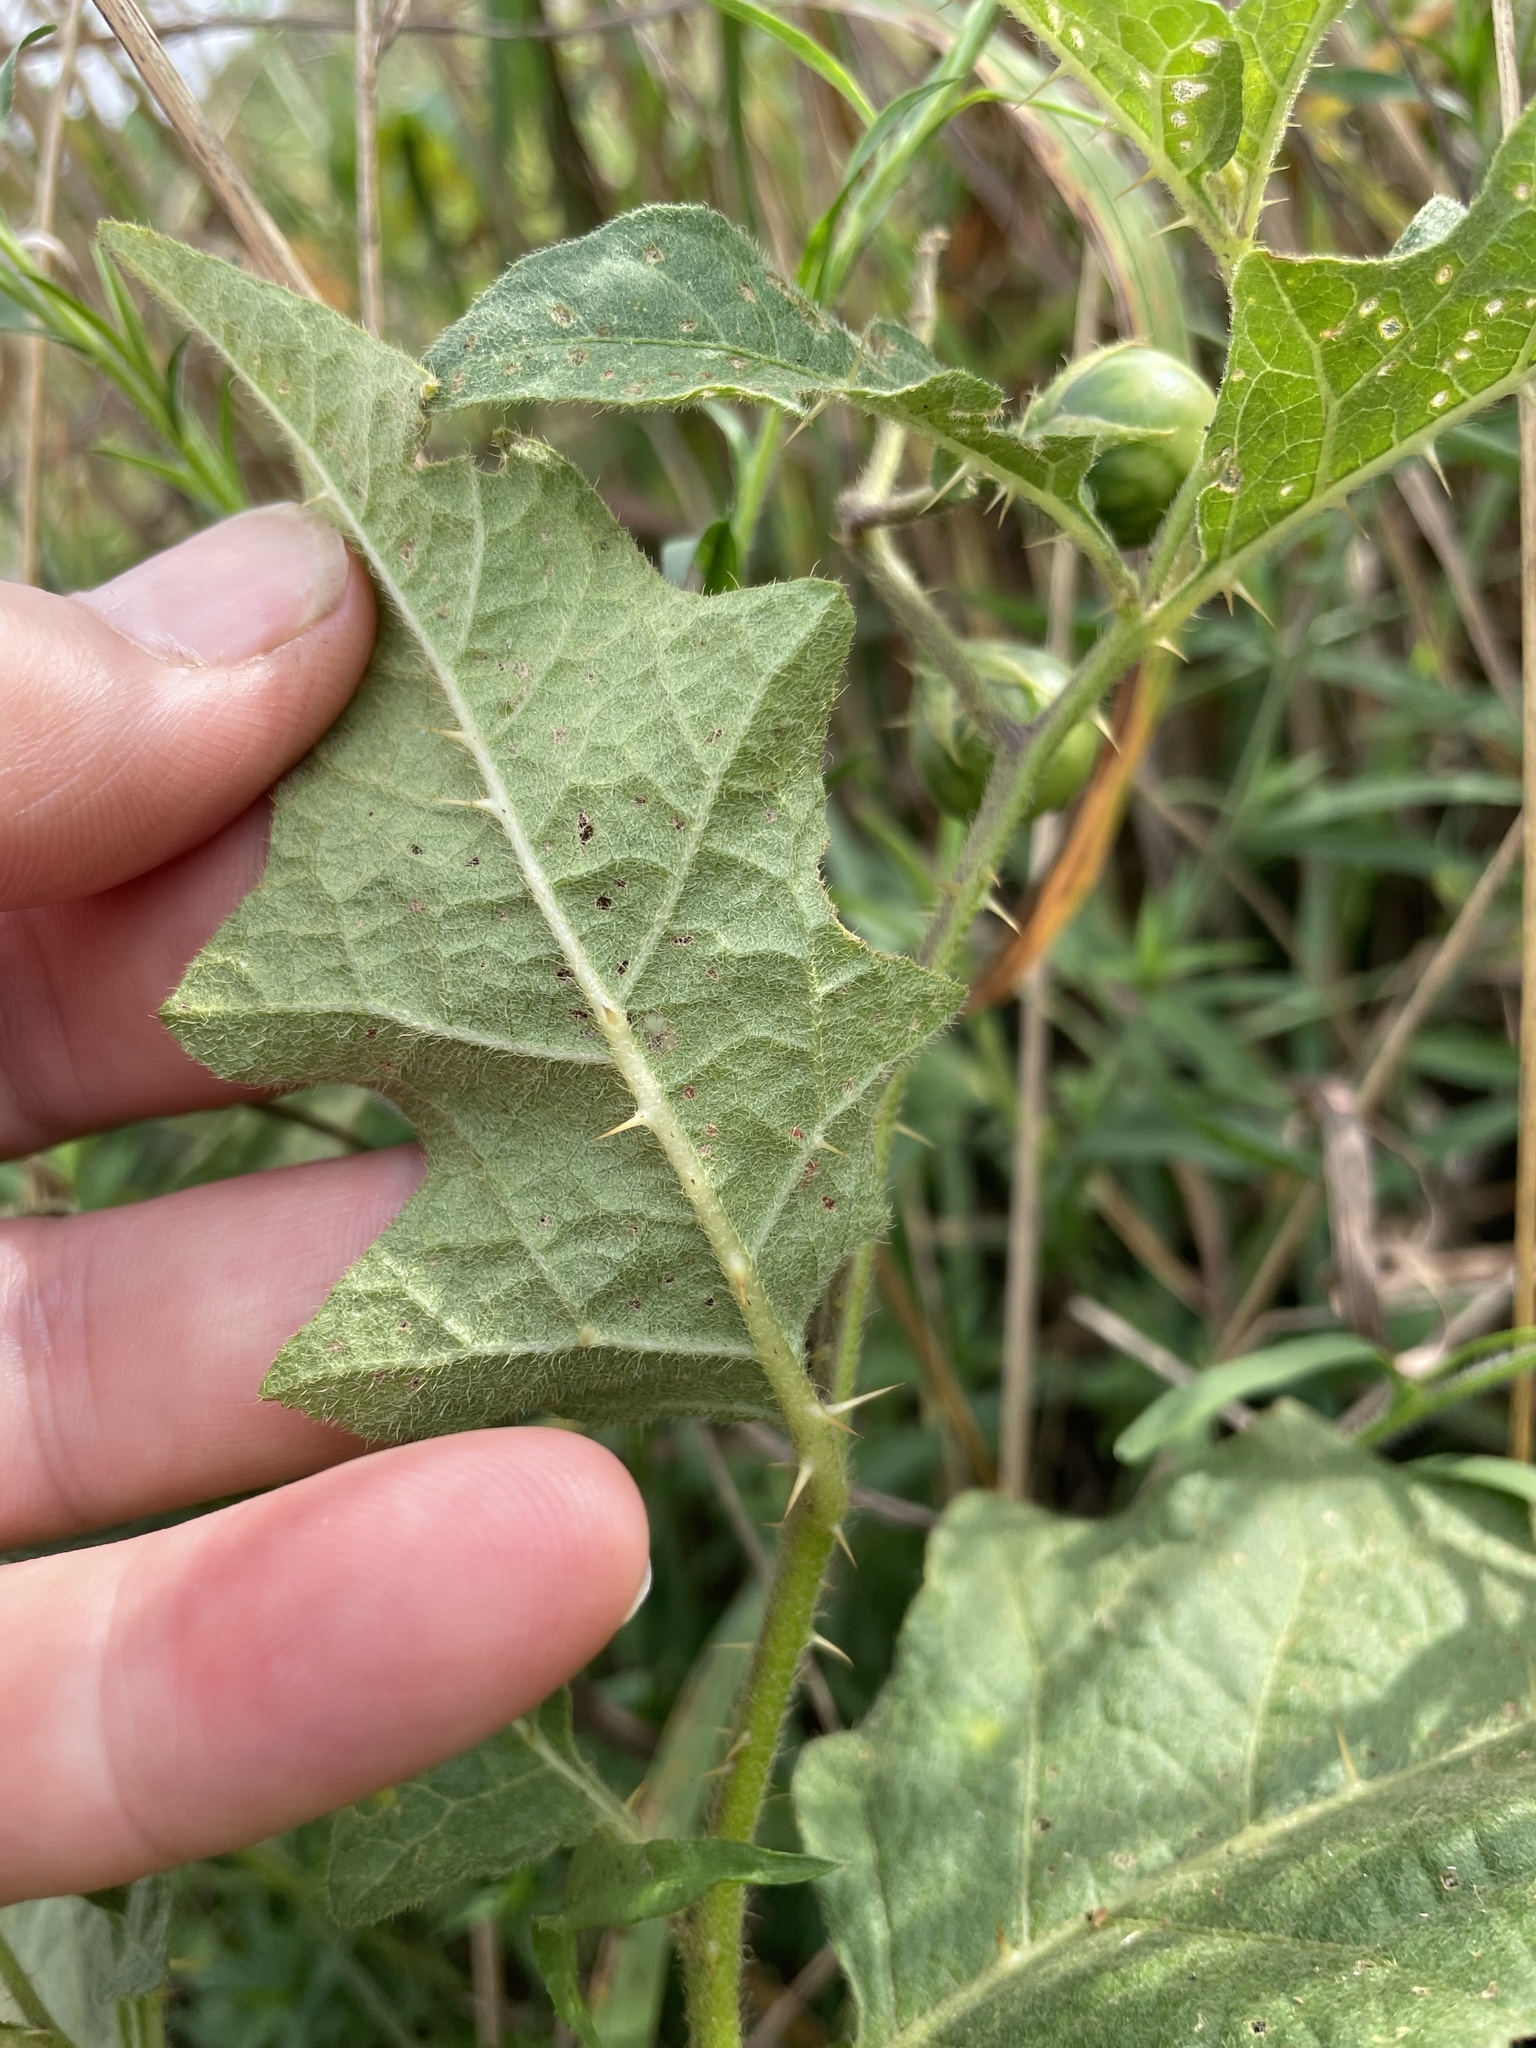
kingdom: Plantae
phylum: Tracheophyta
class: Magnoliopsida
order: Solanales
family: Solanaceae
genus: Solanum
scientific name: Solanum carolinense
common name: Horse-nettle
